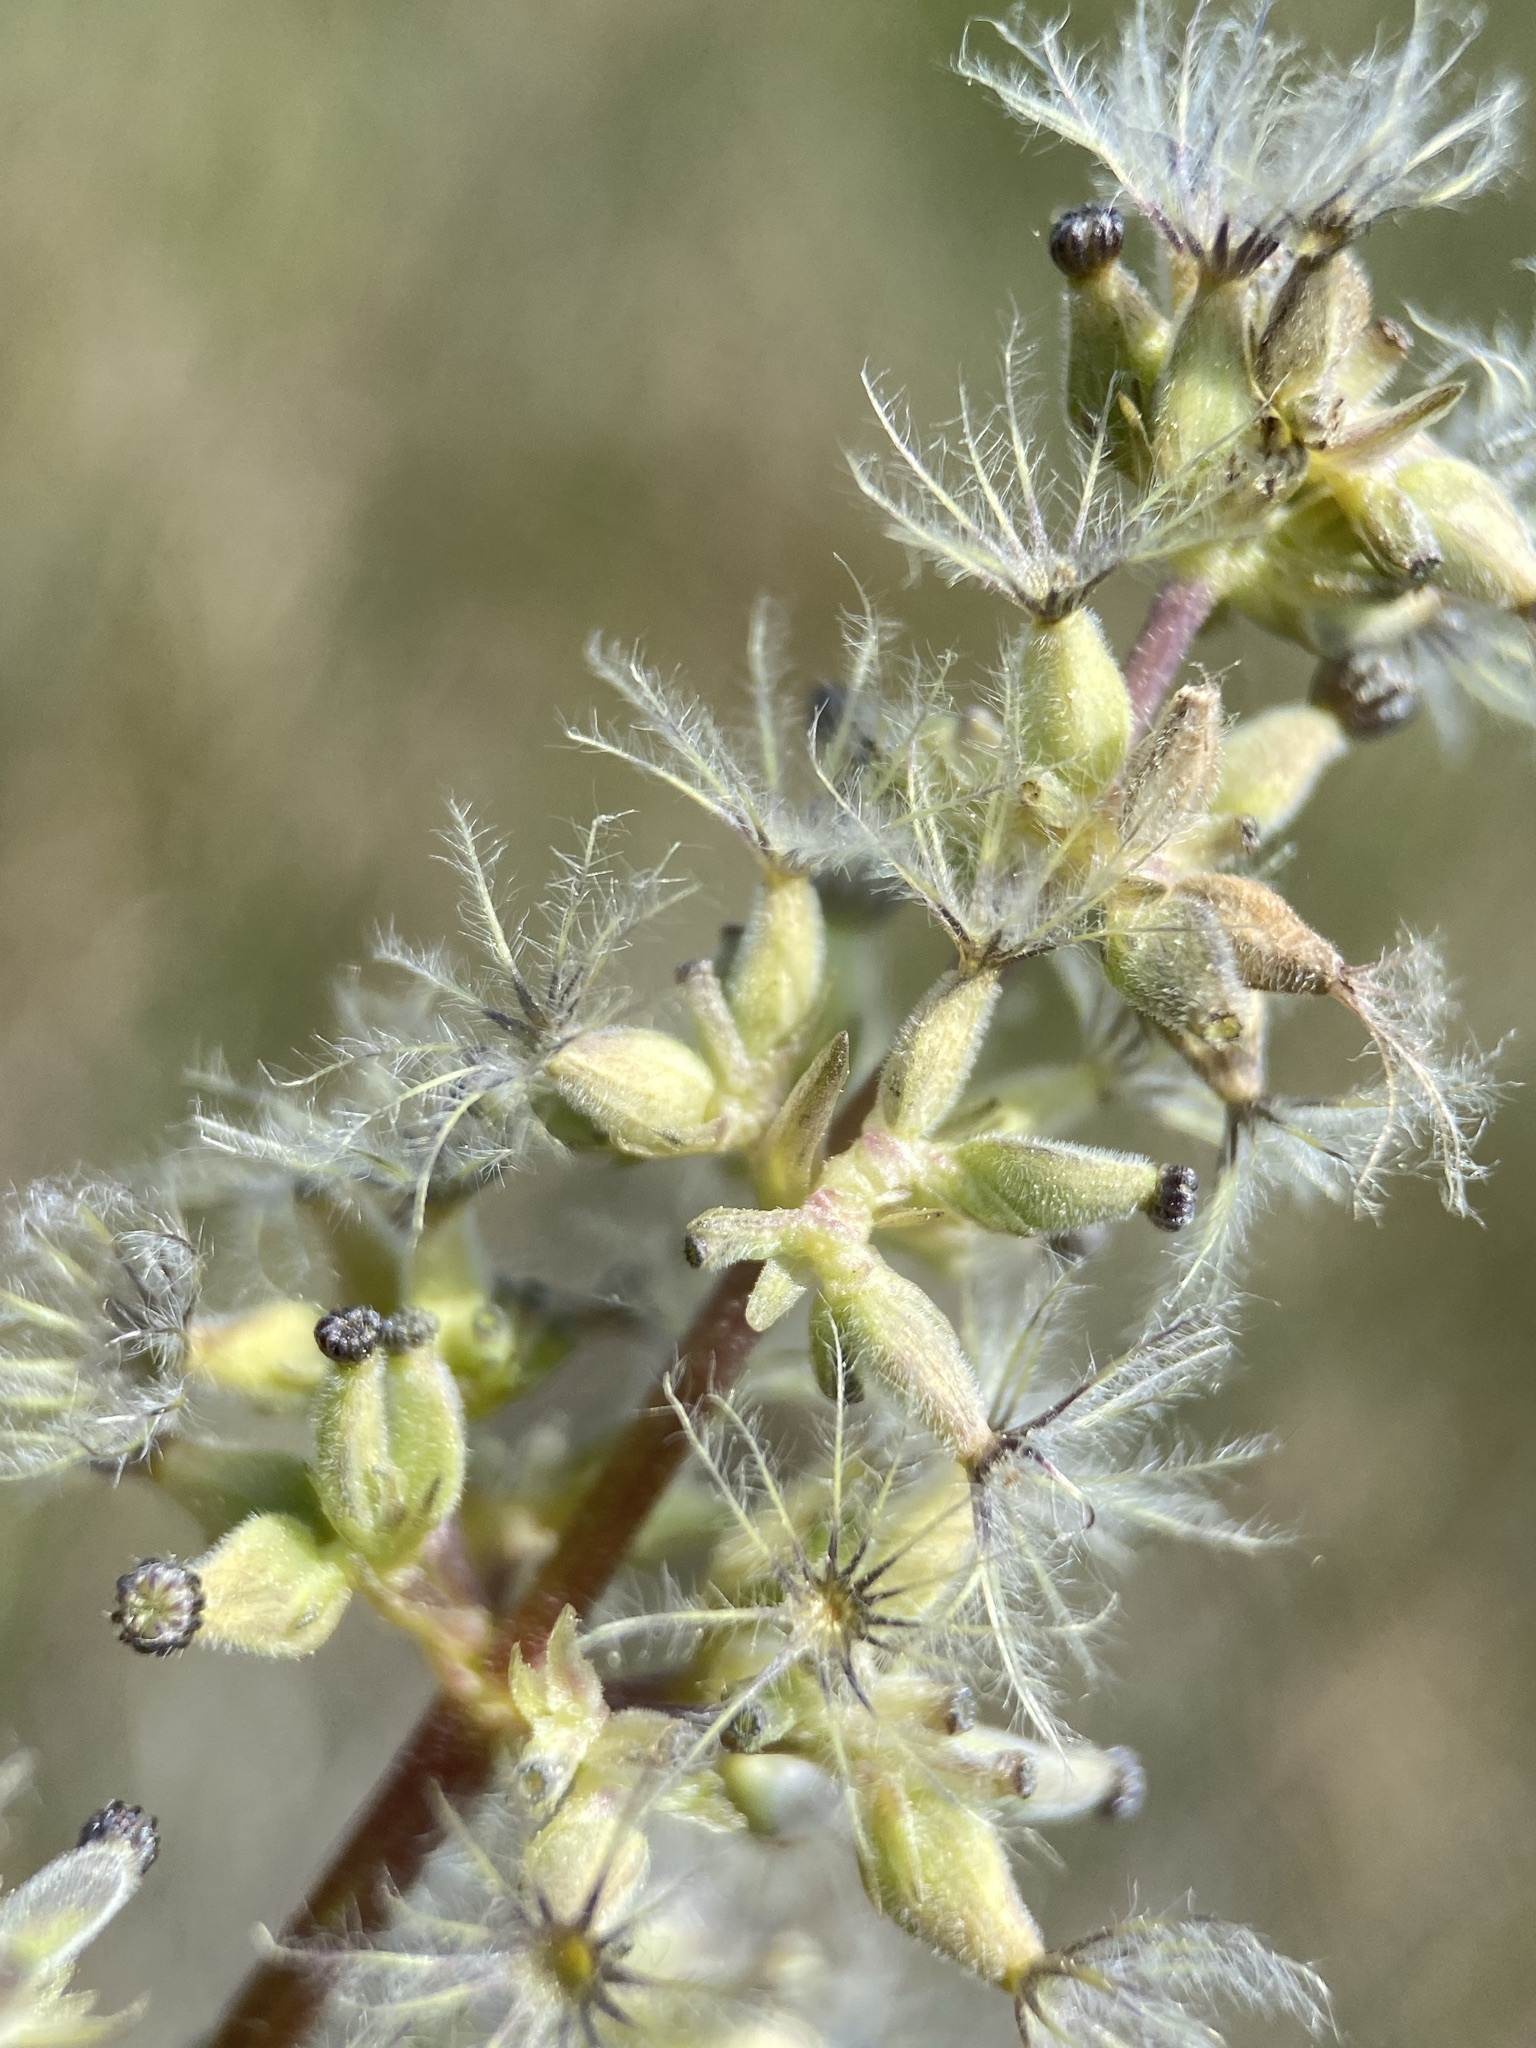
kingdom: Plantae
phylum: Tracheophyta
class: Magnoliopsida
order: Dipsacales
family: Caprifoliaceae
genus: Valeriana
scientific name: Valeriana edulis
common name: Taproot valerian
